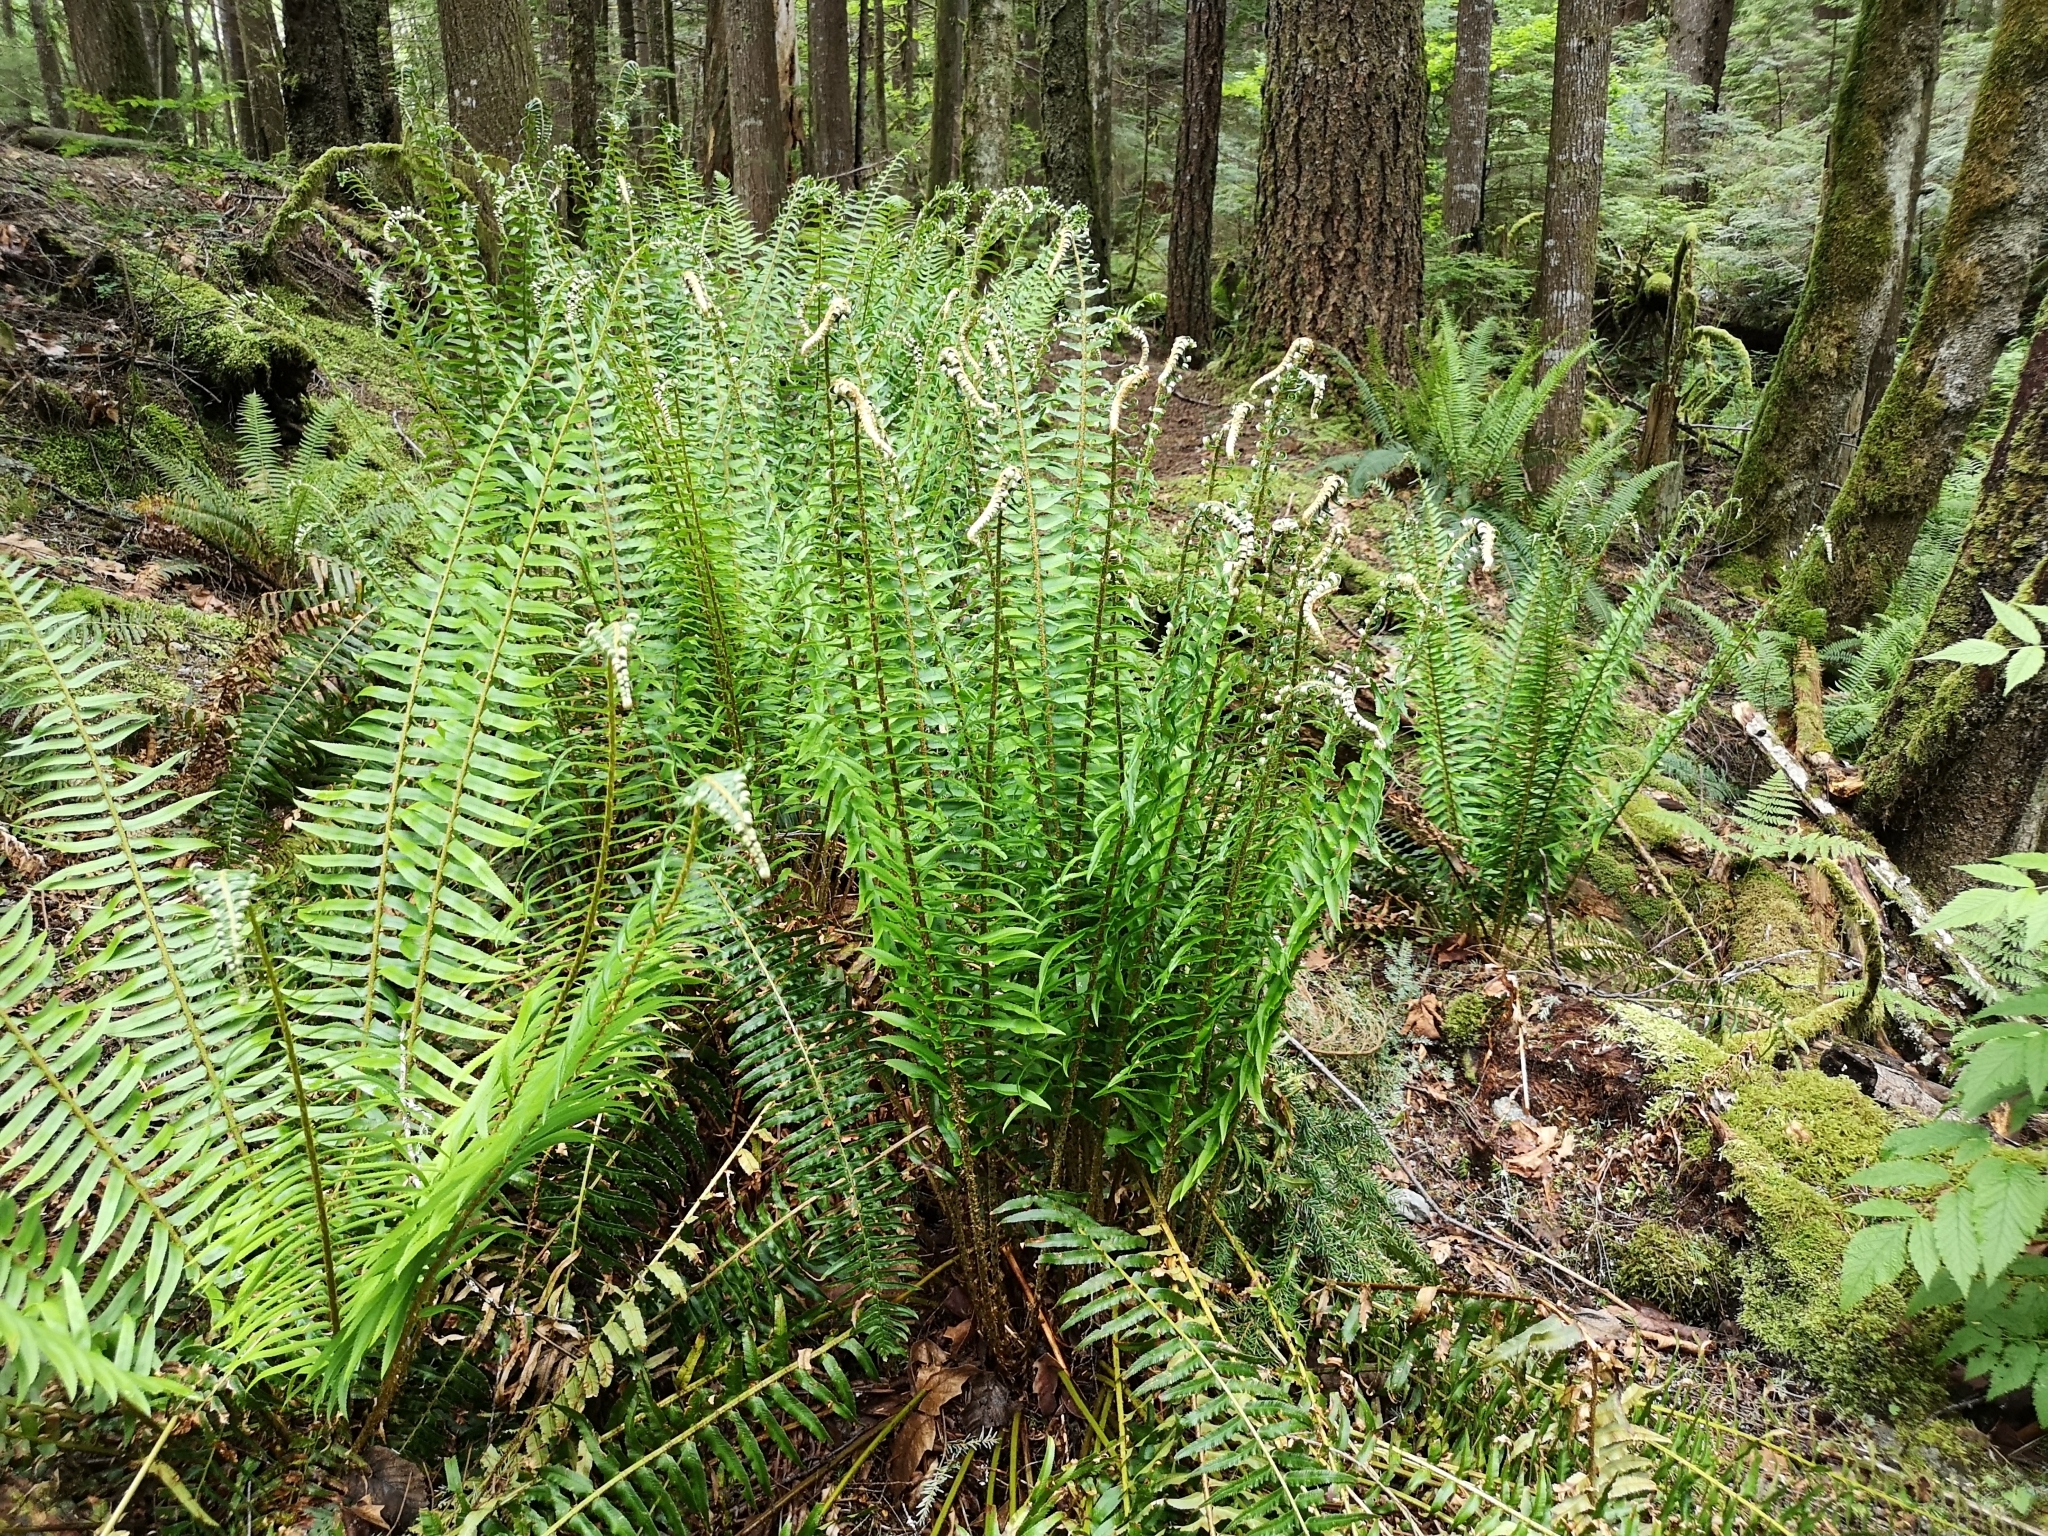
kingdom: Plantae
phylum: Tracheophyta
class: Polypodiopsida
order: Polypodiales
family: Dryopteridaceae
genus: Polystichum
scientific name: Polystichum munitum
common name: Western sword-fern
